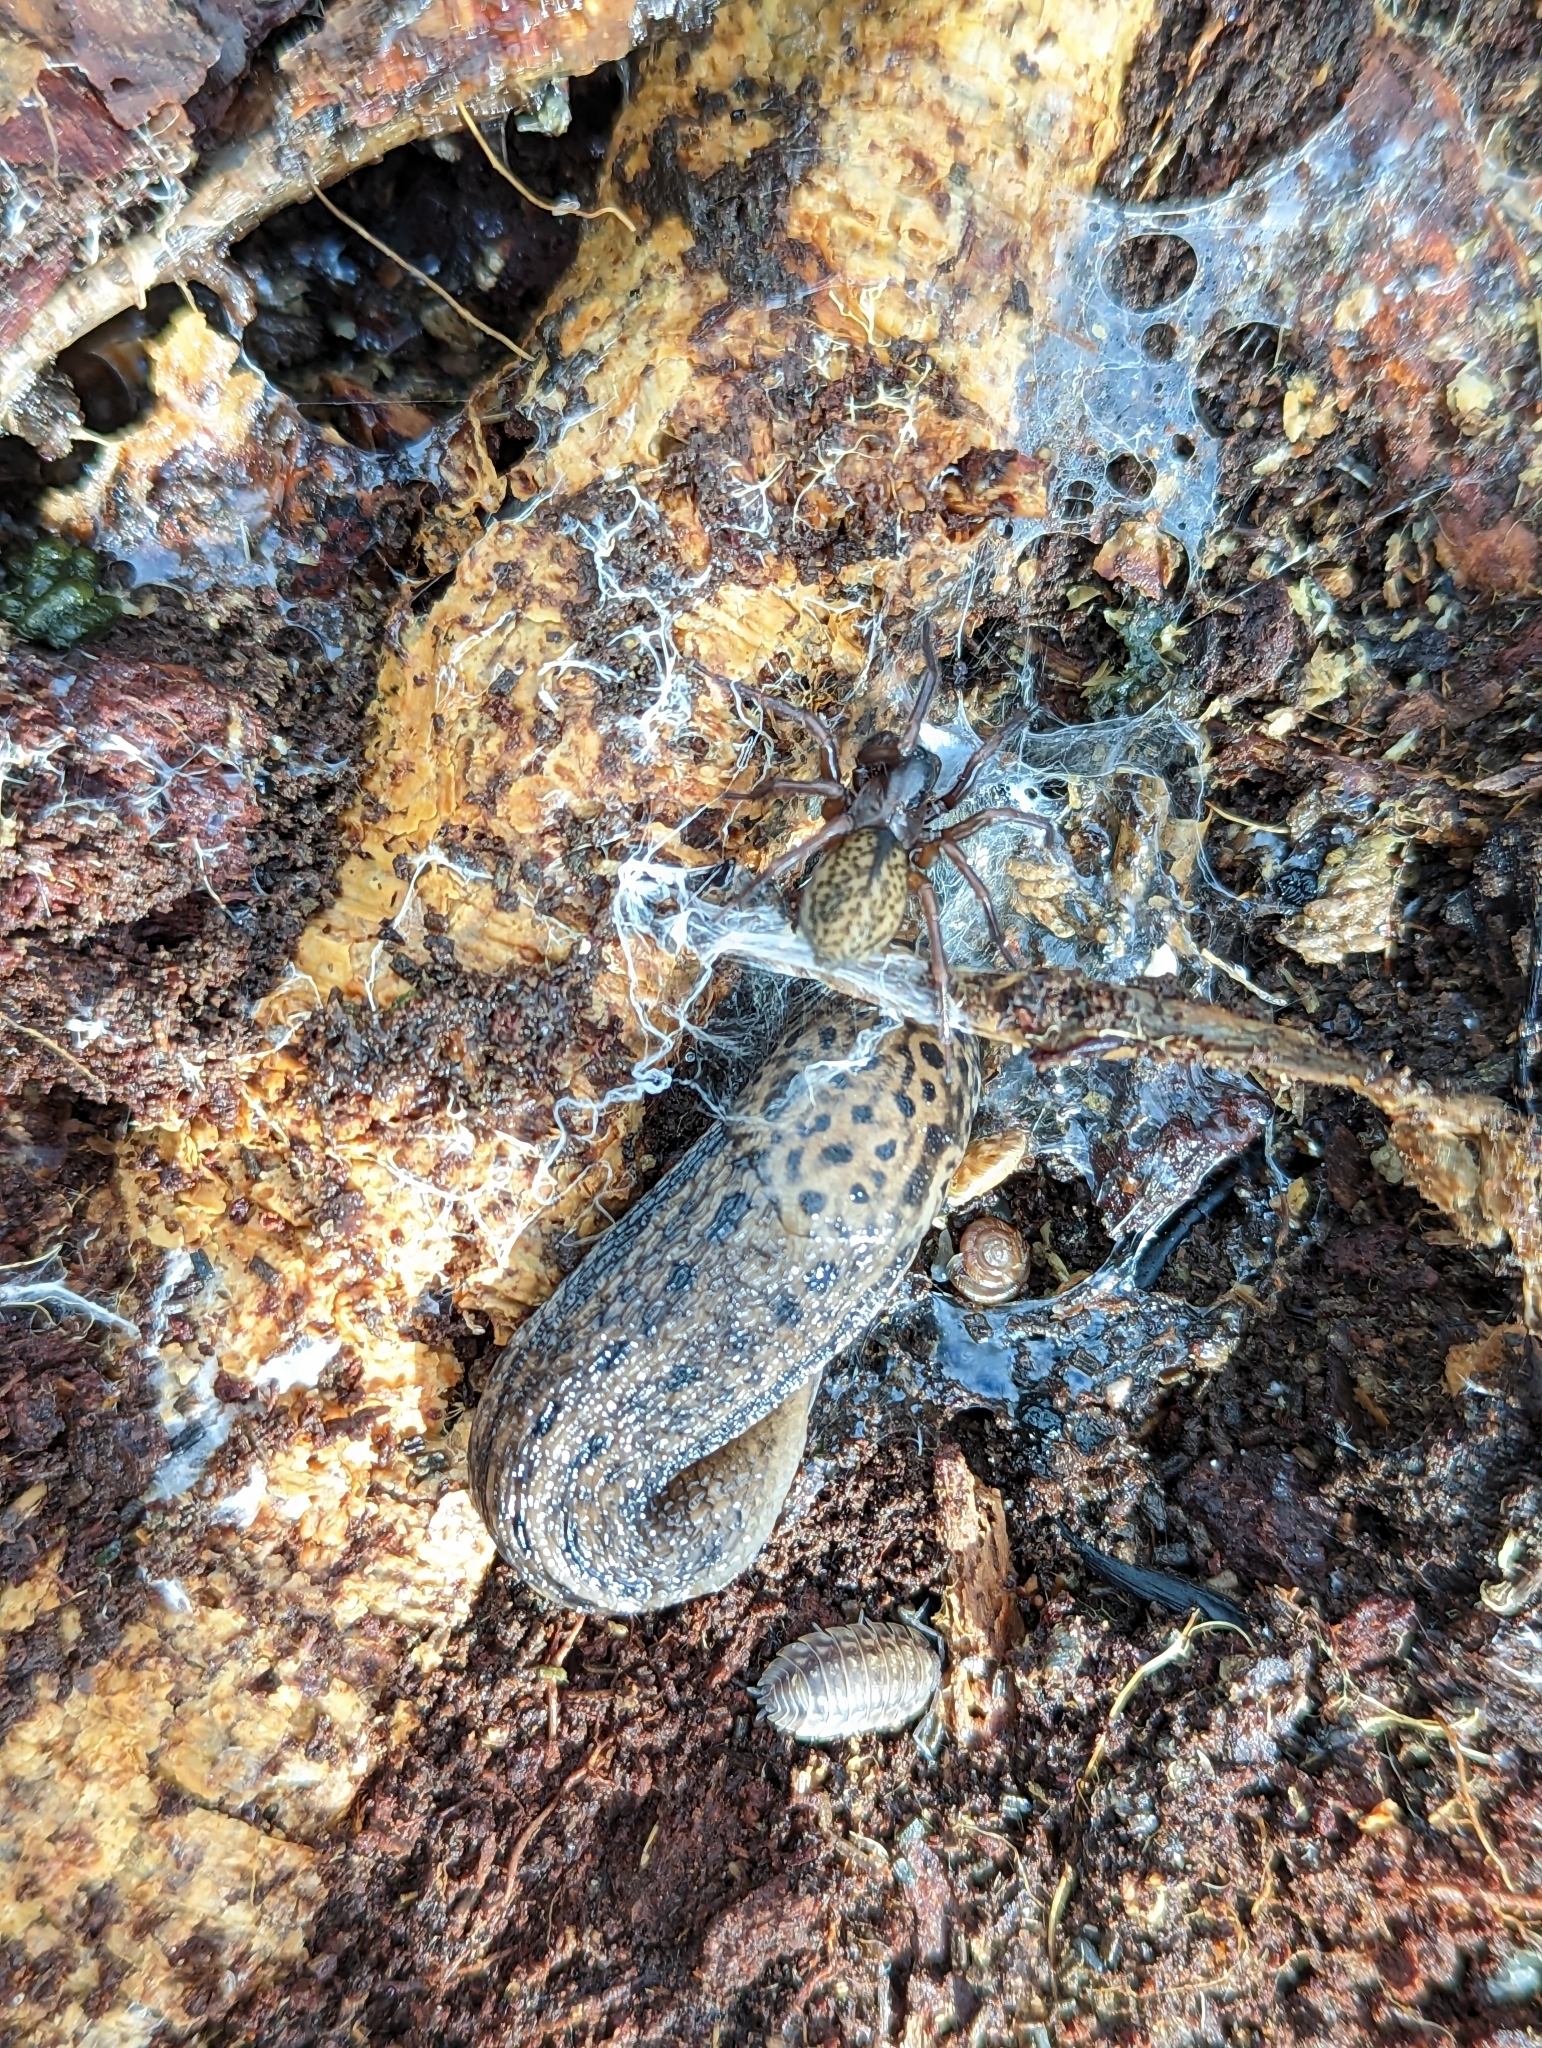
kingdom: Animalia
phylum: Mollusca
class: Gastropoda
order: Stylommatophora
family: Limacidae
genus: Limax
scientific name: Limax maximus
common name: Great grey slug
